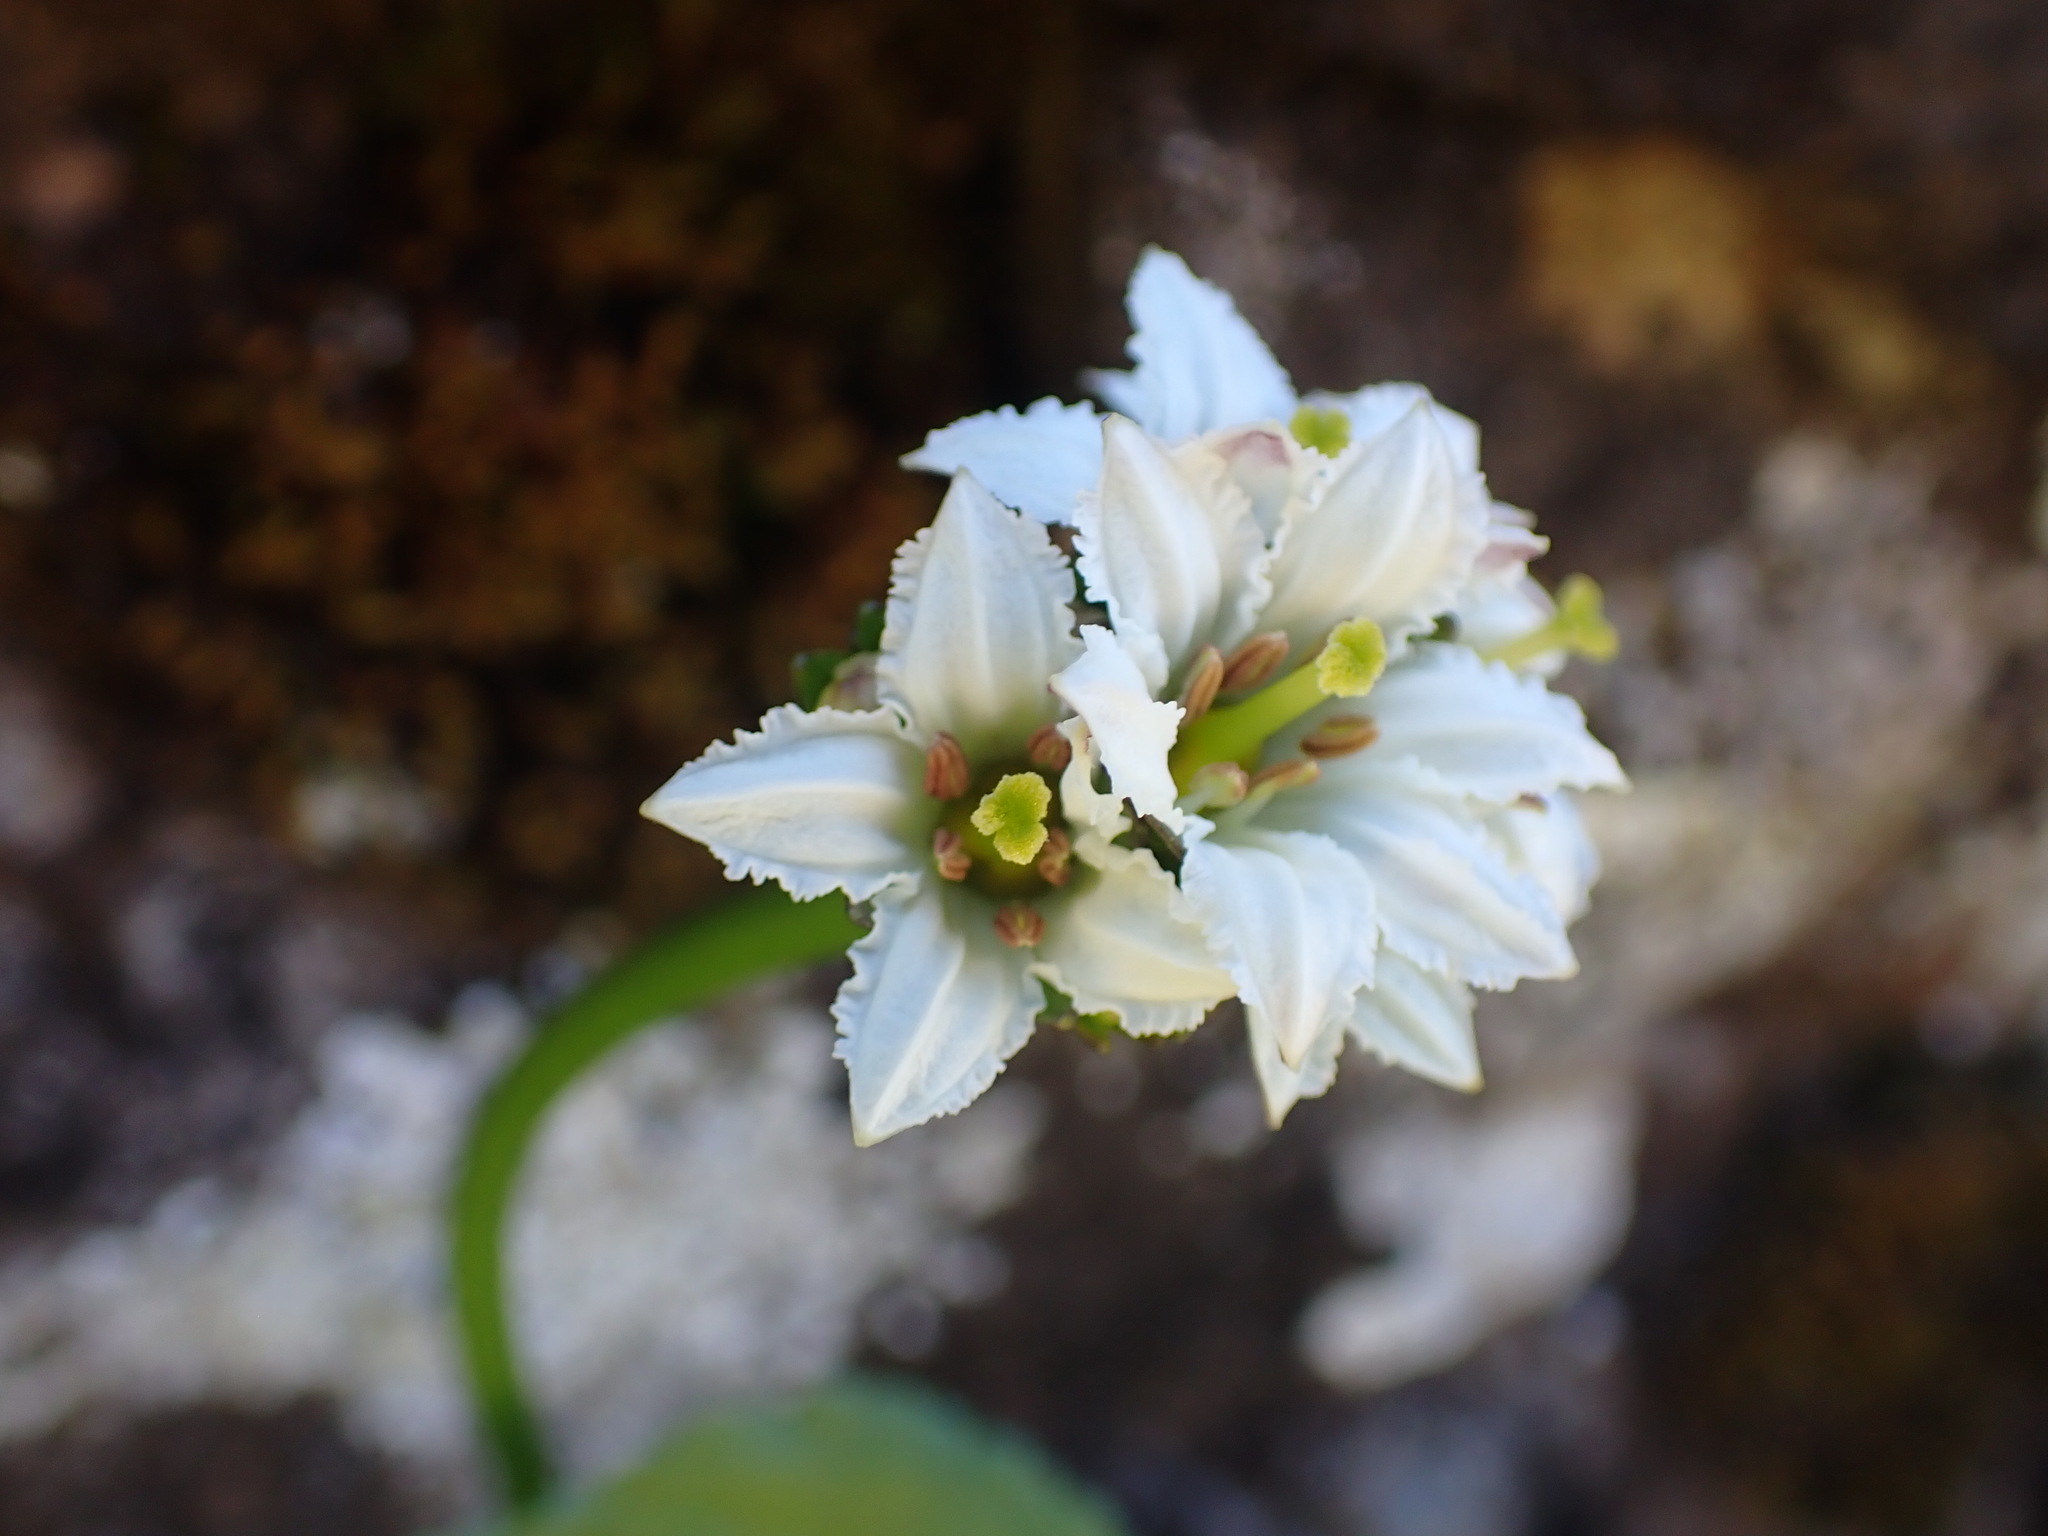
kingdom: Plantae
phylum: Tracheophyta
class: Magnoliopsida
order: Asterales
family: Menyanthaceae
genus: Nephrophyllidium
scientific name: Nephrophyllidium crista-galli
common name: Deer-cabbage
